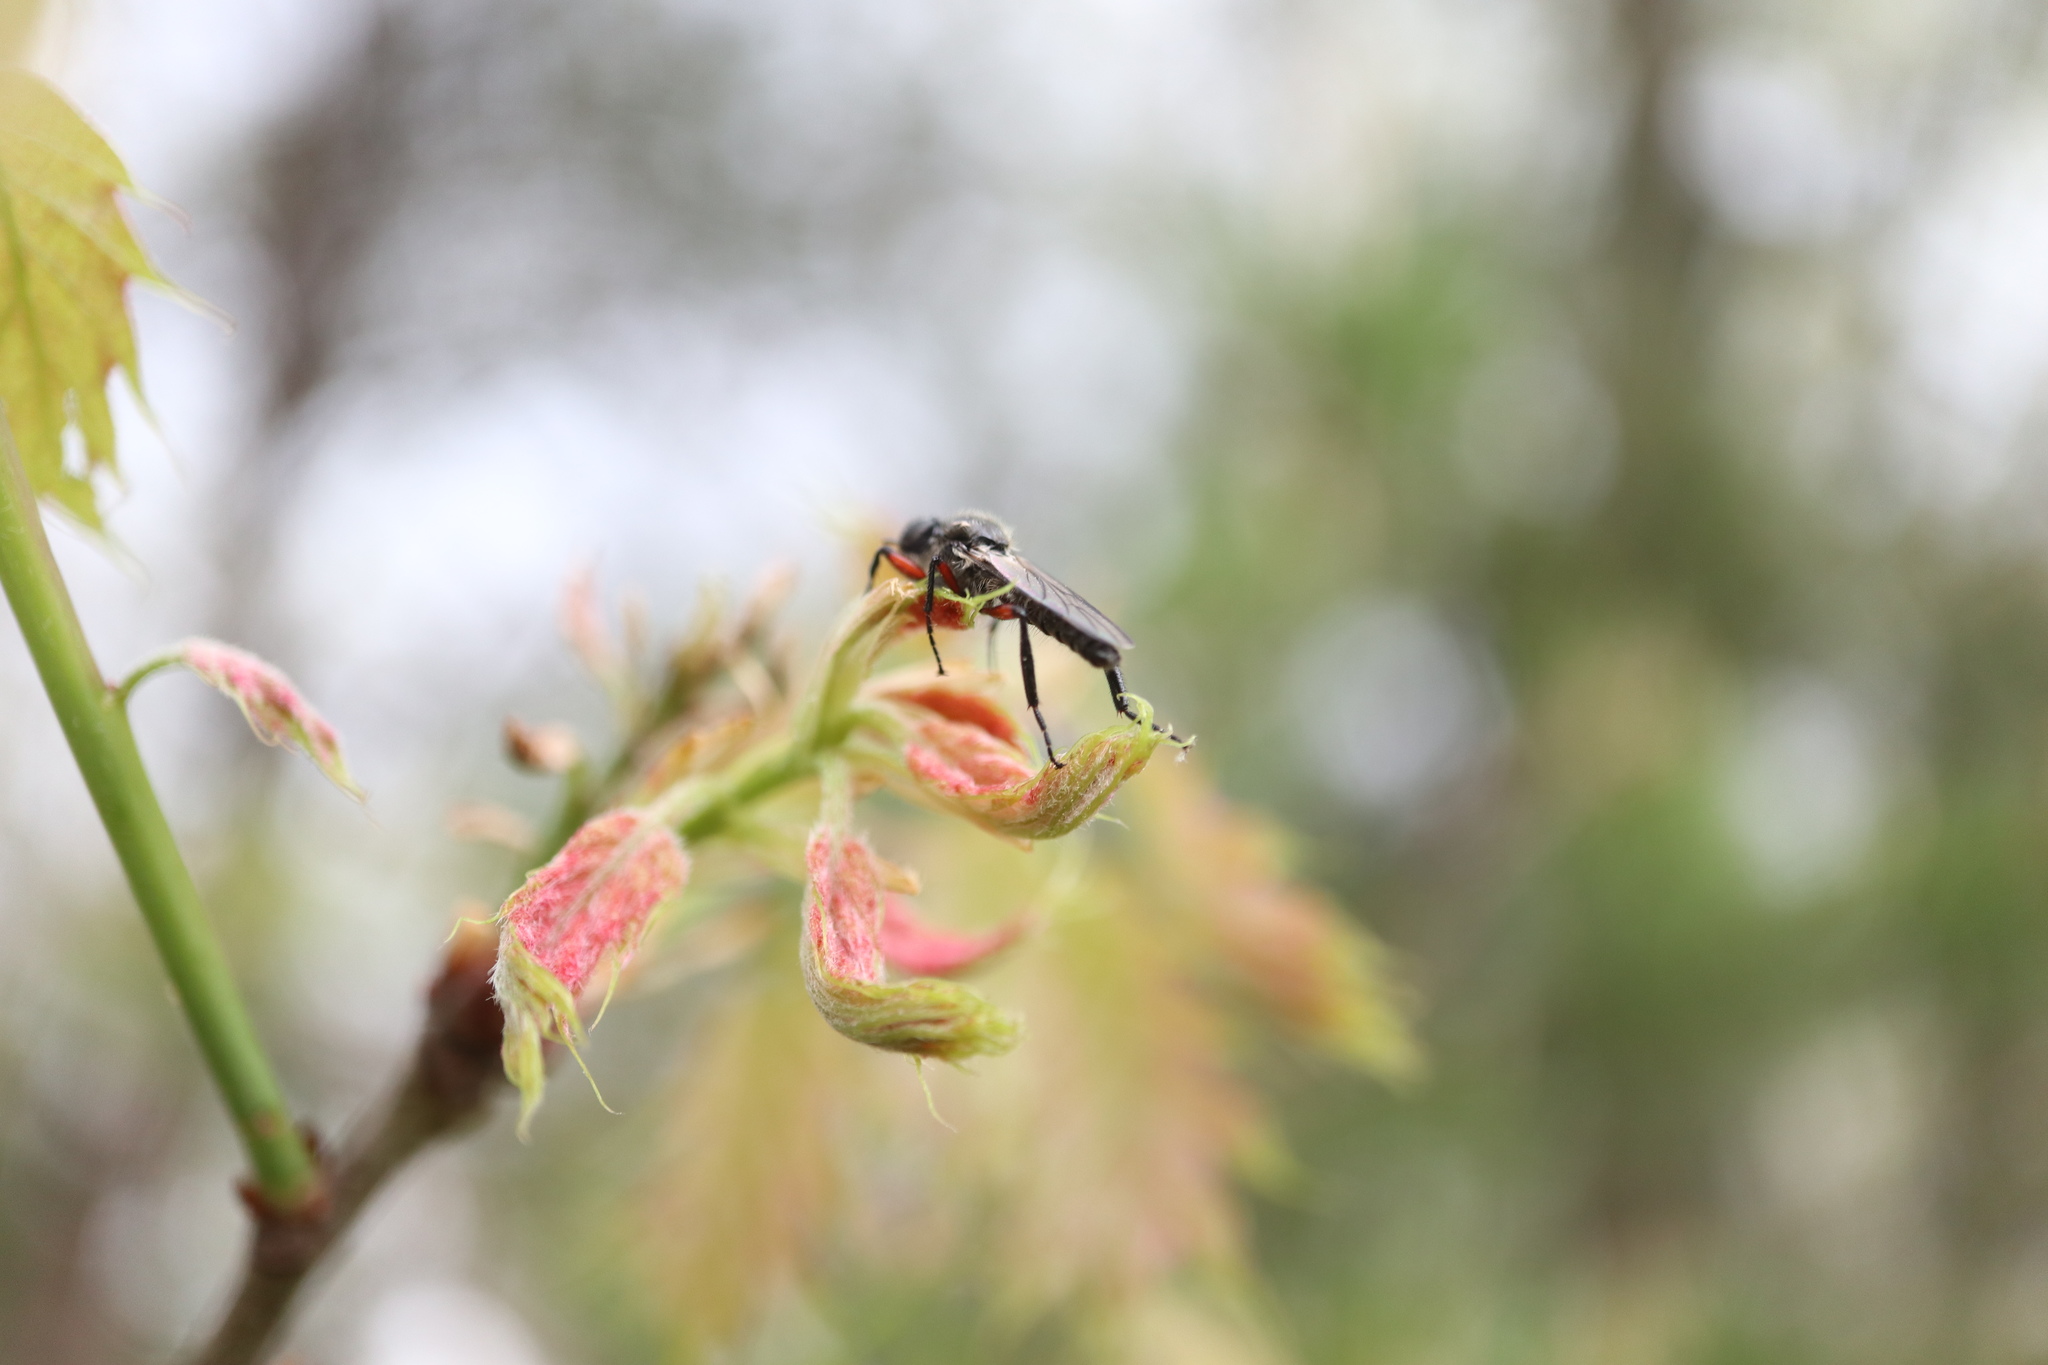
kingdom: Animalia
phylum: Arthropoda
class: Insecta
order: Diptera
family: Bibionidae
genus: Bibio
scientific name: Bibio femoratus
